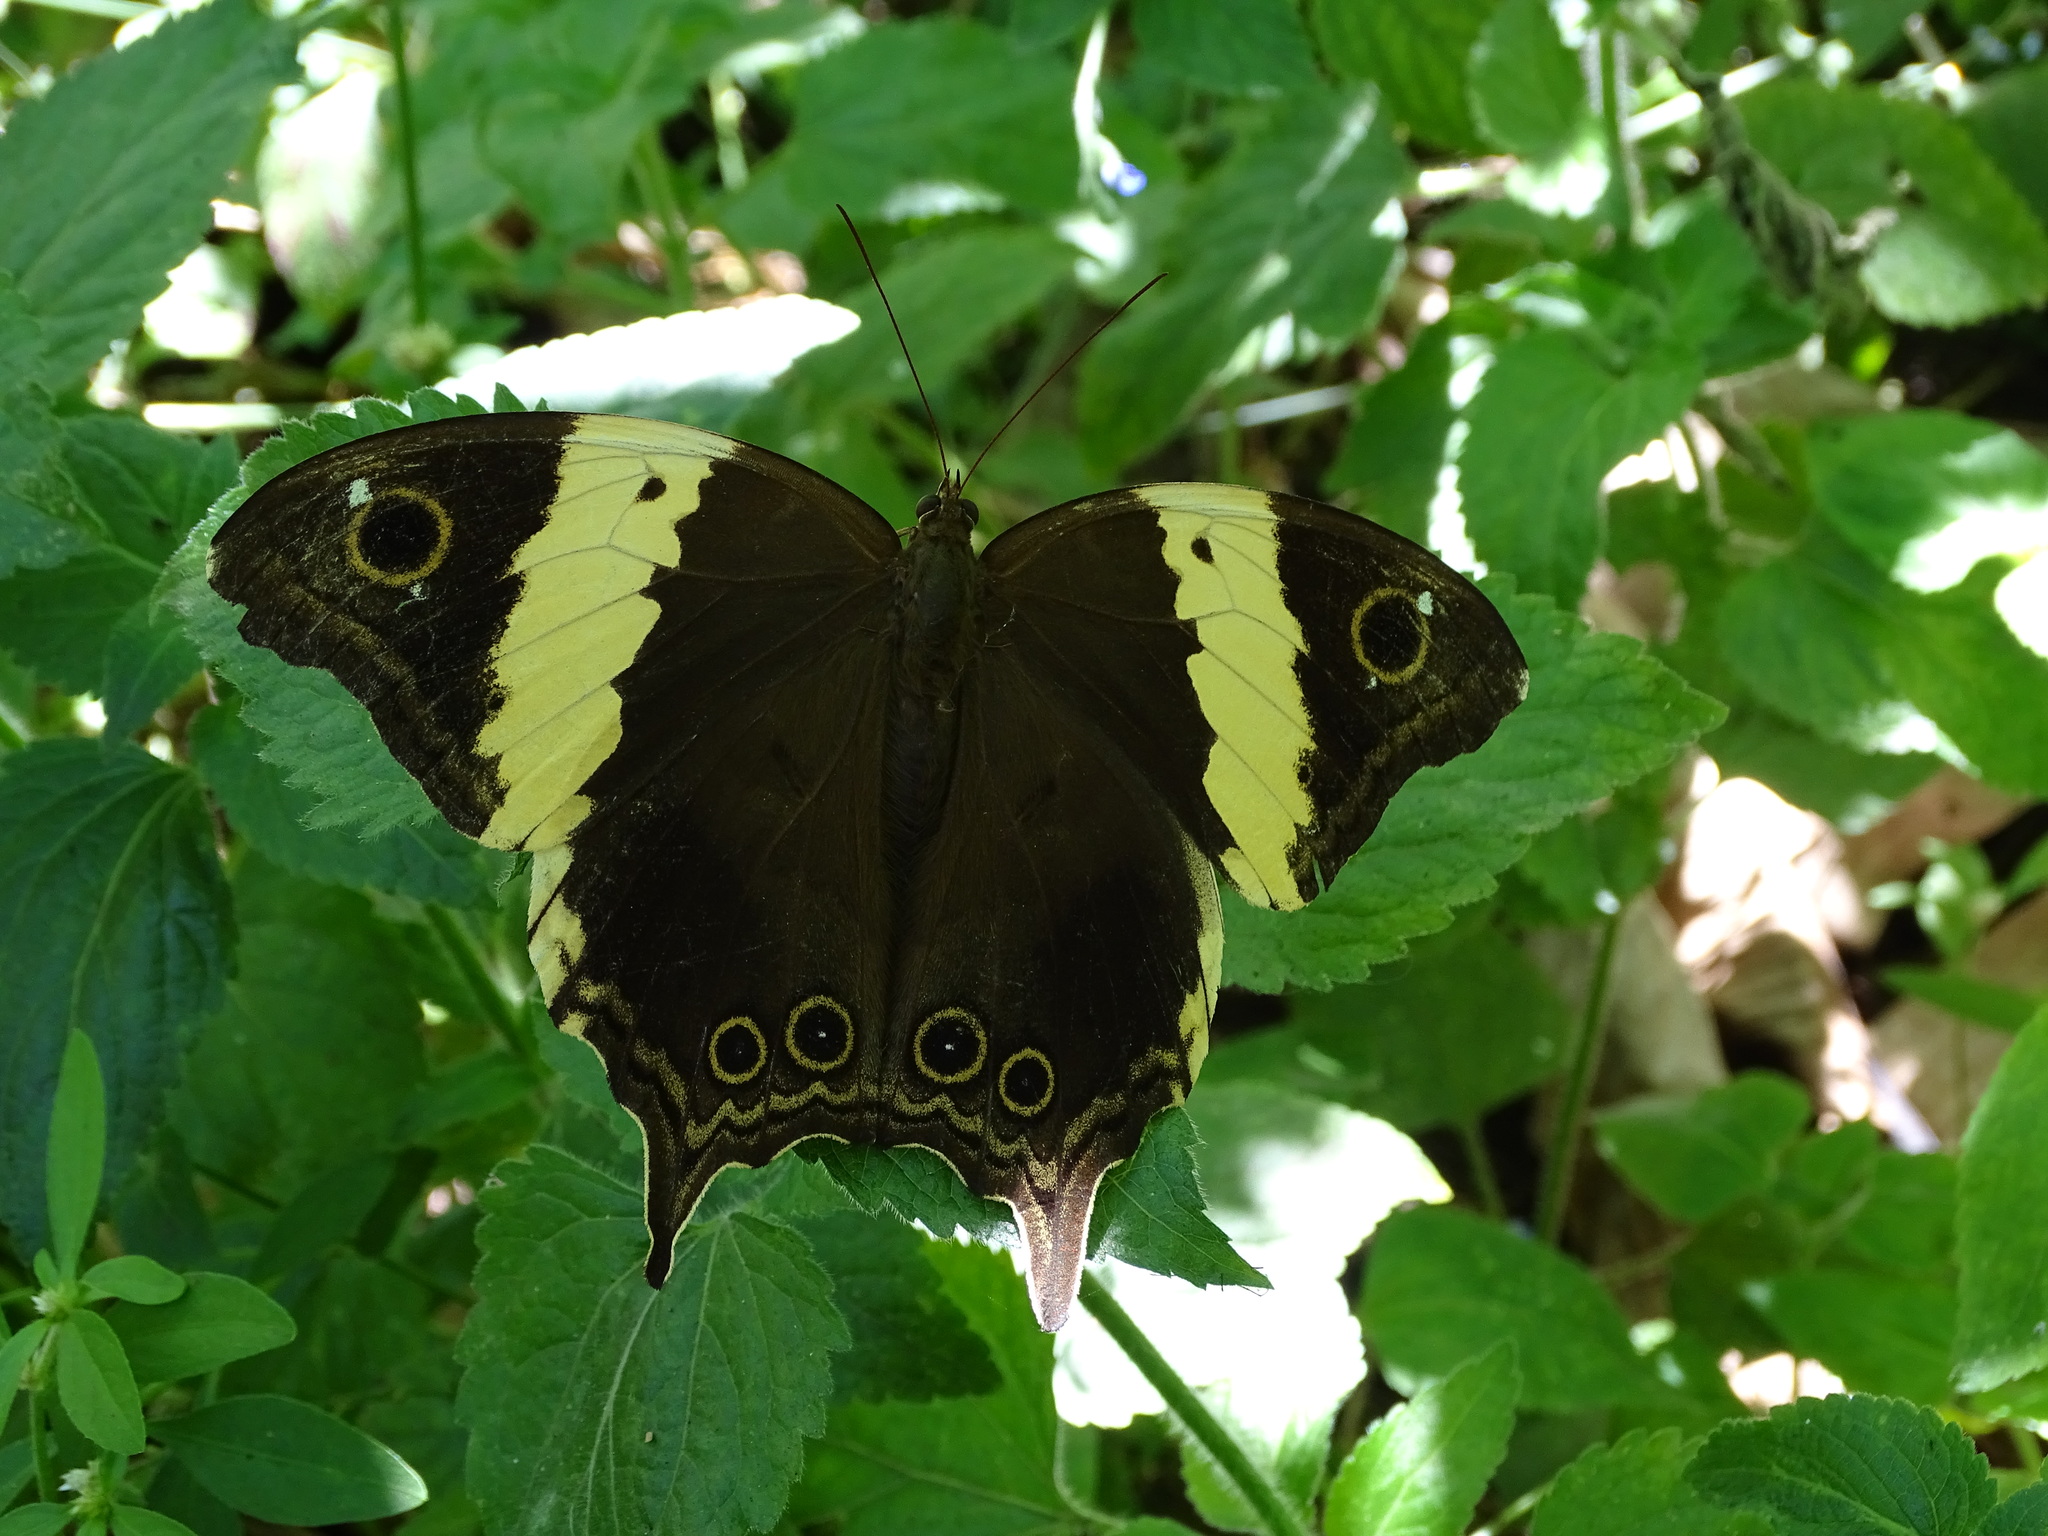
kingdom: Animalia
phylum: Arthropoda
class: Insecta
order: Lepidoptera
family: Nymphalidae
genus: Neorina
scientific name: Neorina crishna
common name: Tailed yellow owl
